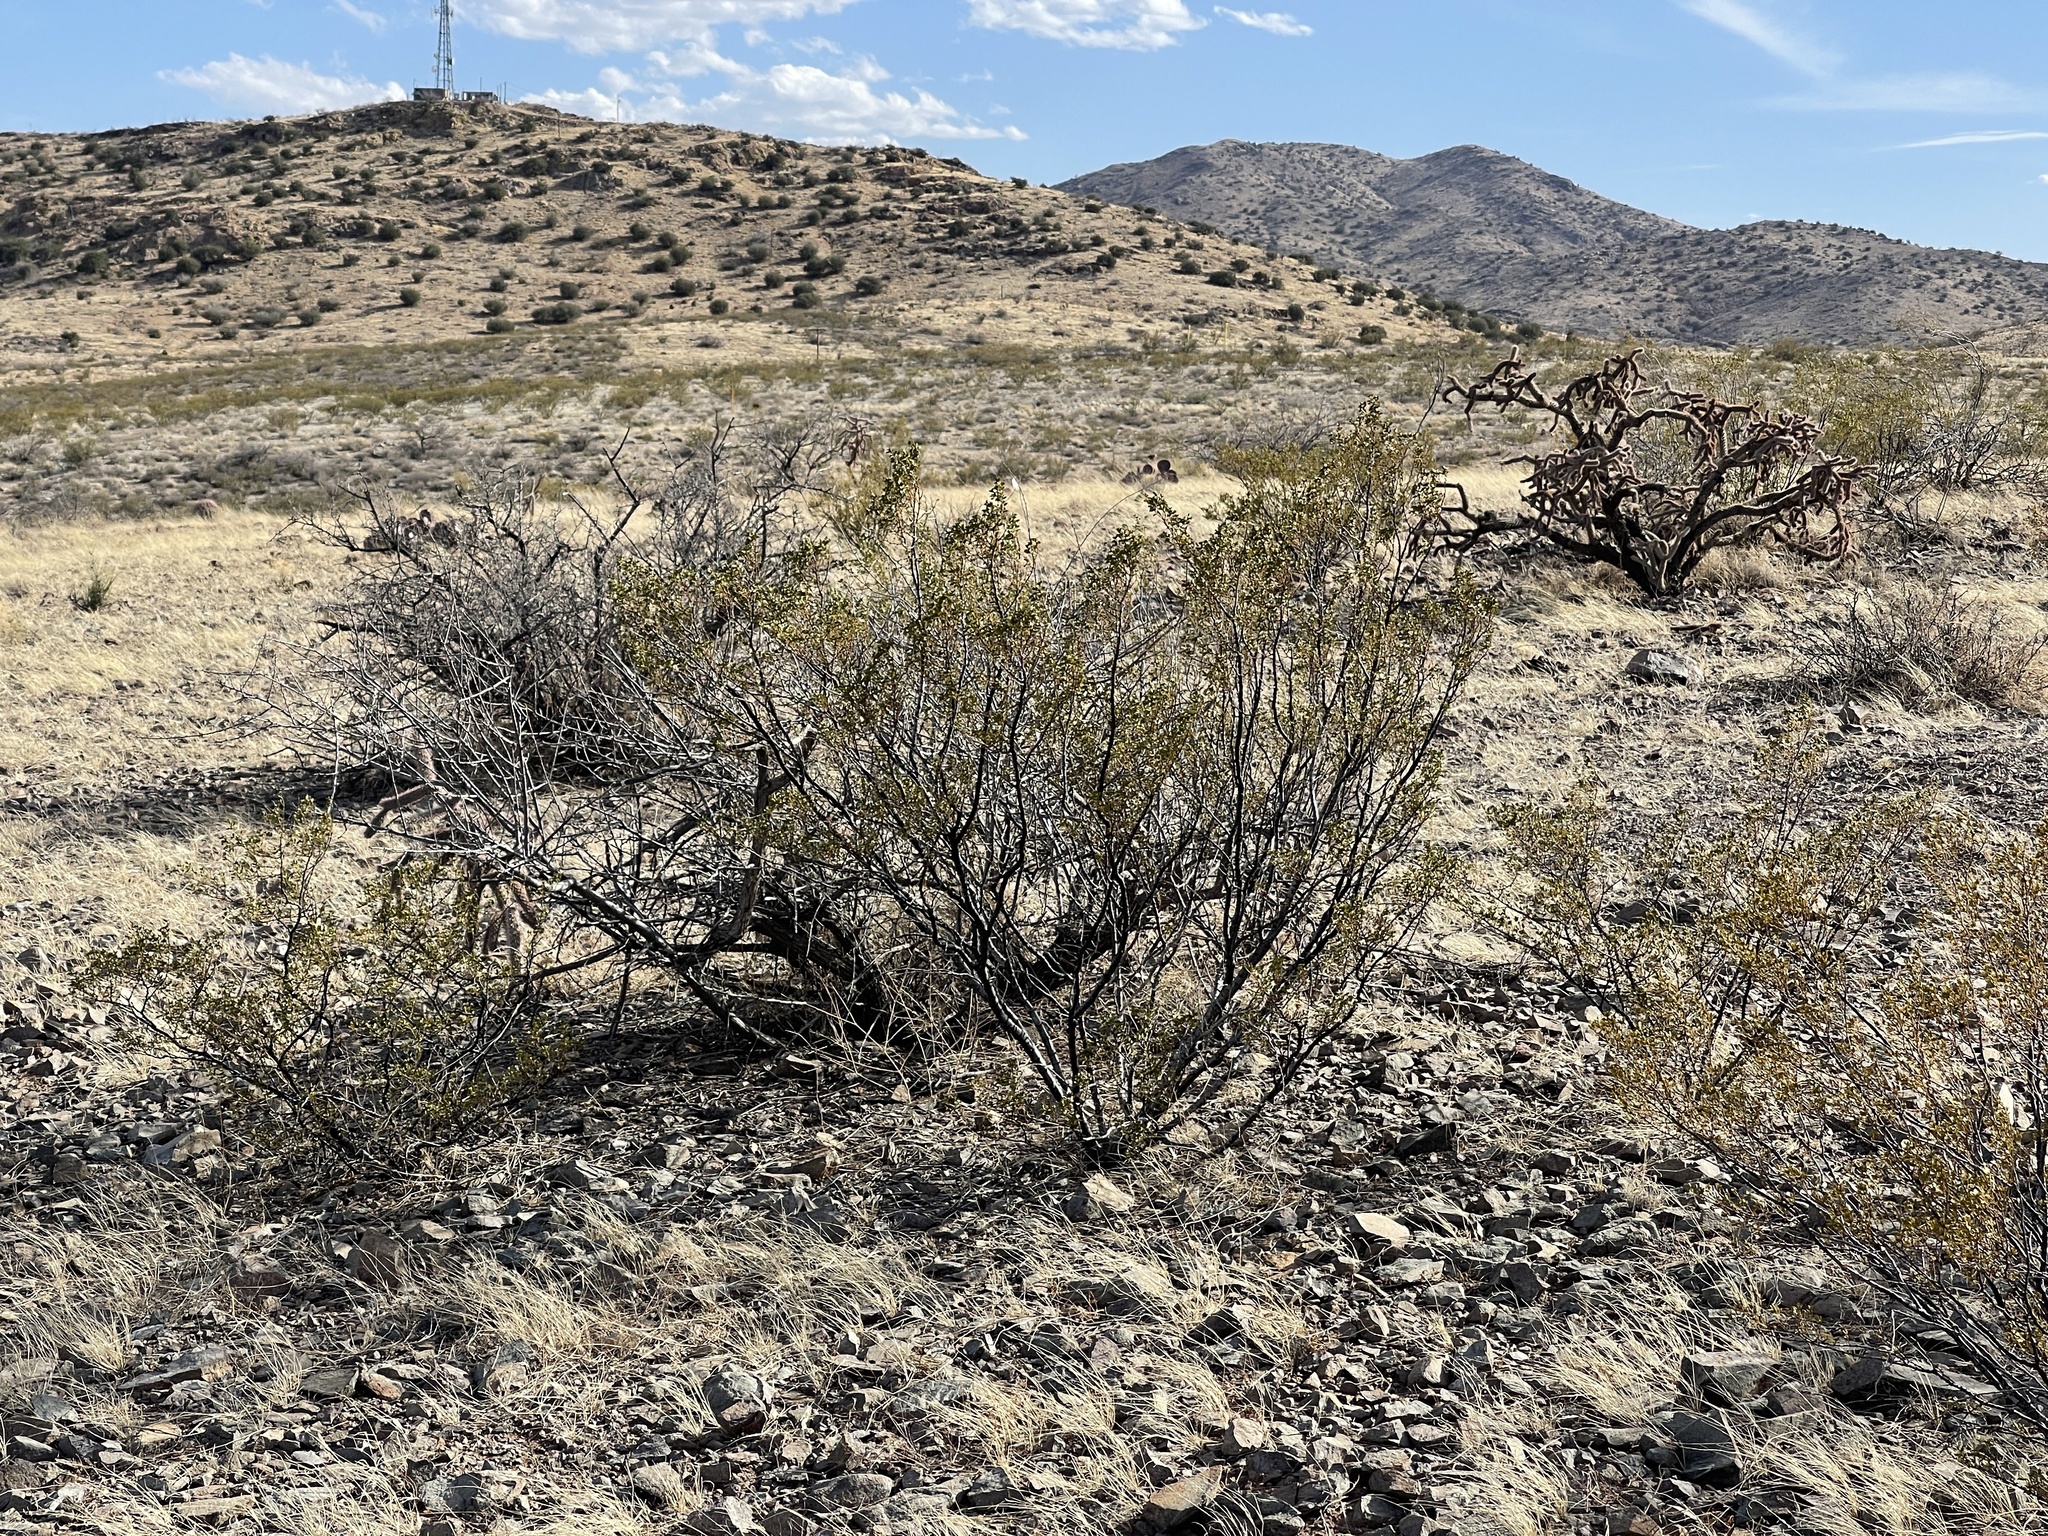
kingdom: Plantae
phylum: Tracheophyta
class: Magnoliopsida
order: Zygophyllales
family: Zygophyllaceae
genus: Larrea
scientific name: Larrea tridentata
